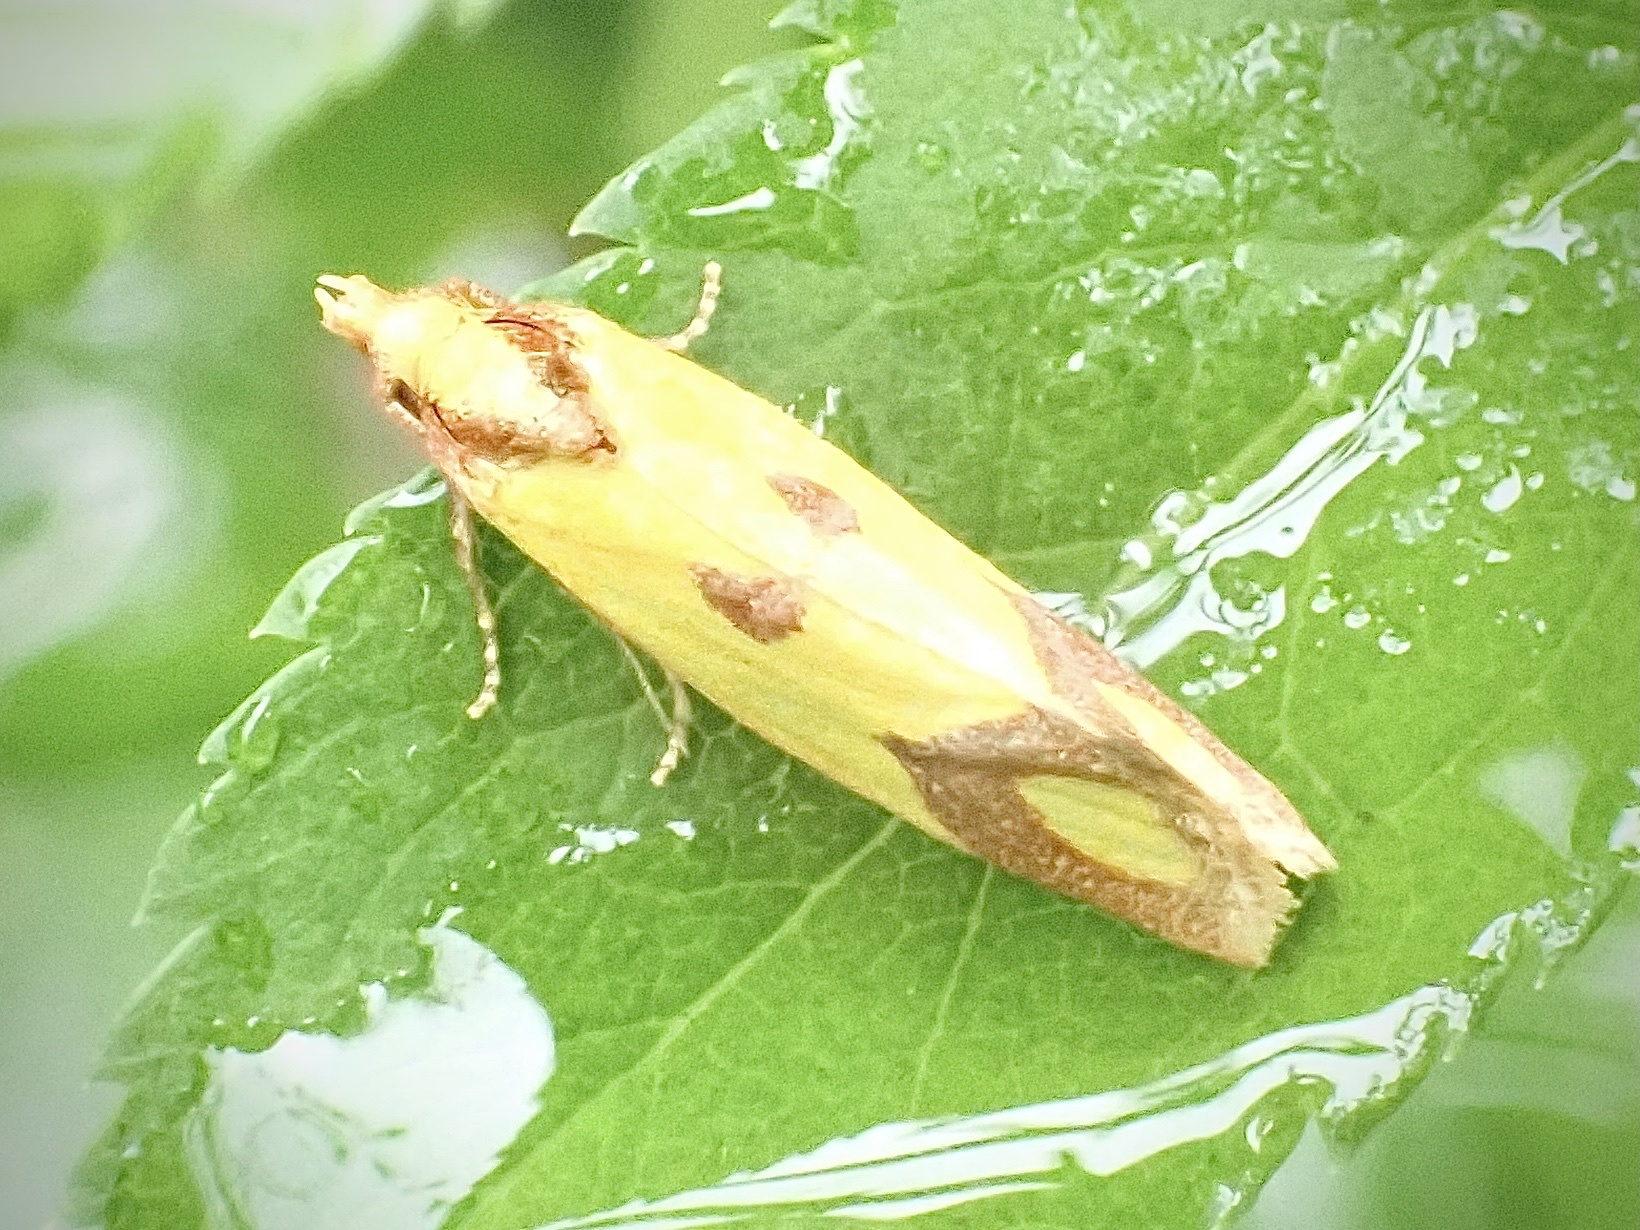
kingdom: Animalia
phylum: Arthropoda
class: Insecta
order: Lepidoptera
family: Tortricidae
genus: Agapeta
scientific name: Agapeta zoegana
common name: Sulfur knapweed root moth
